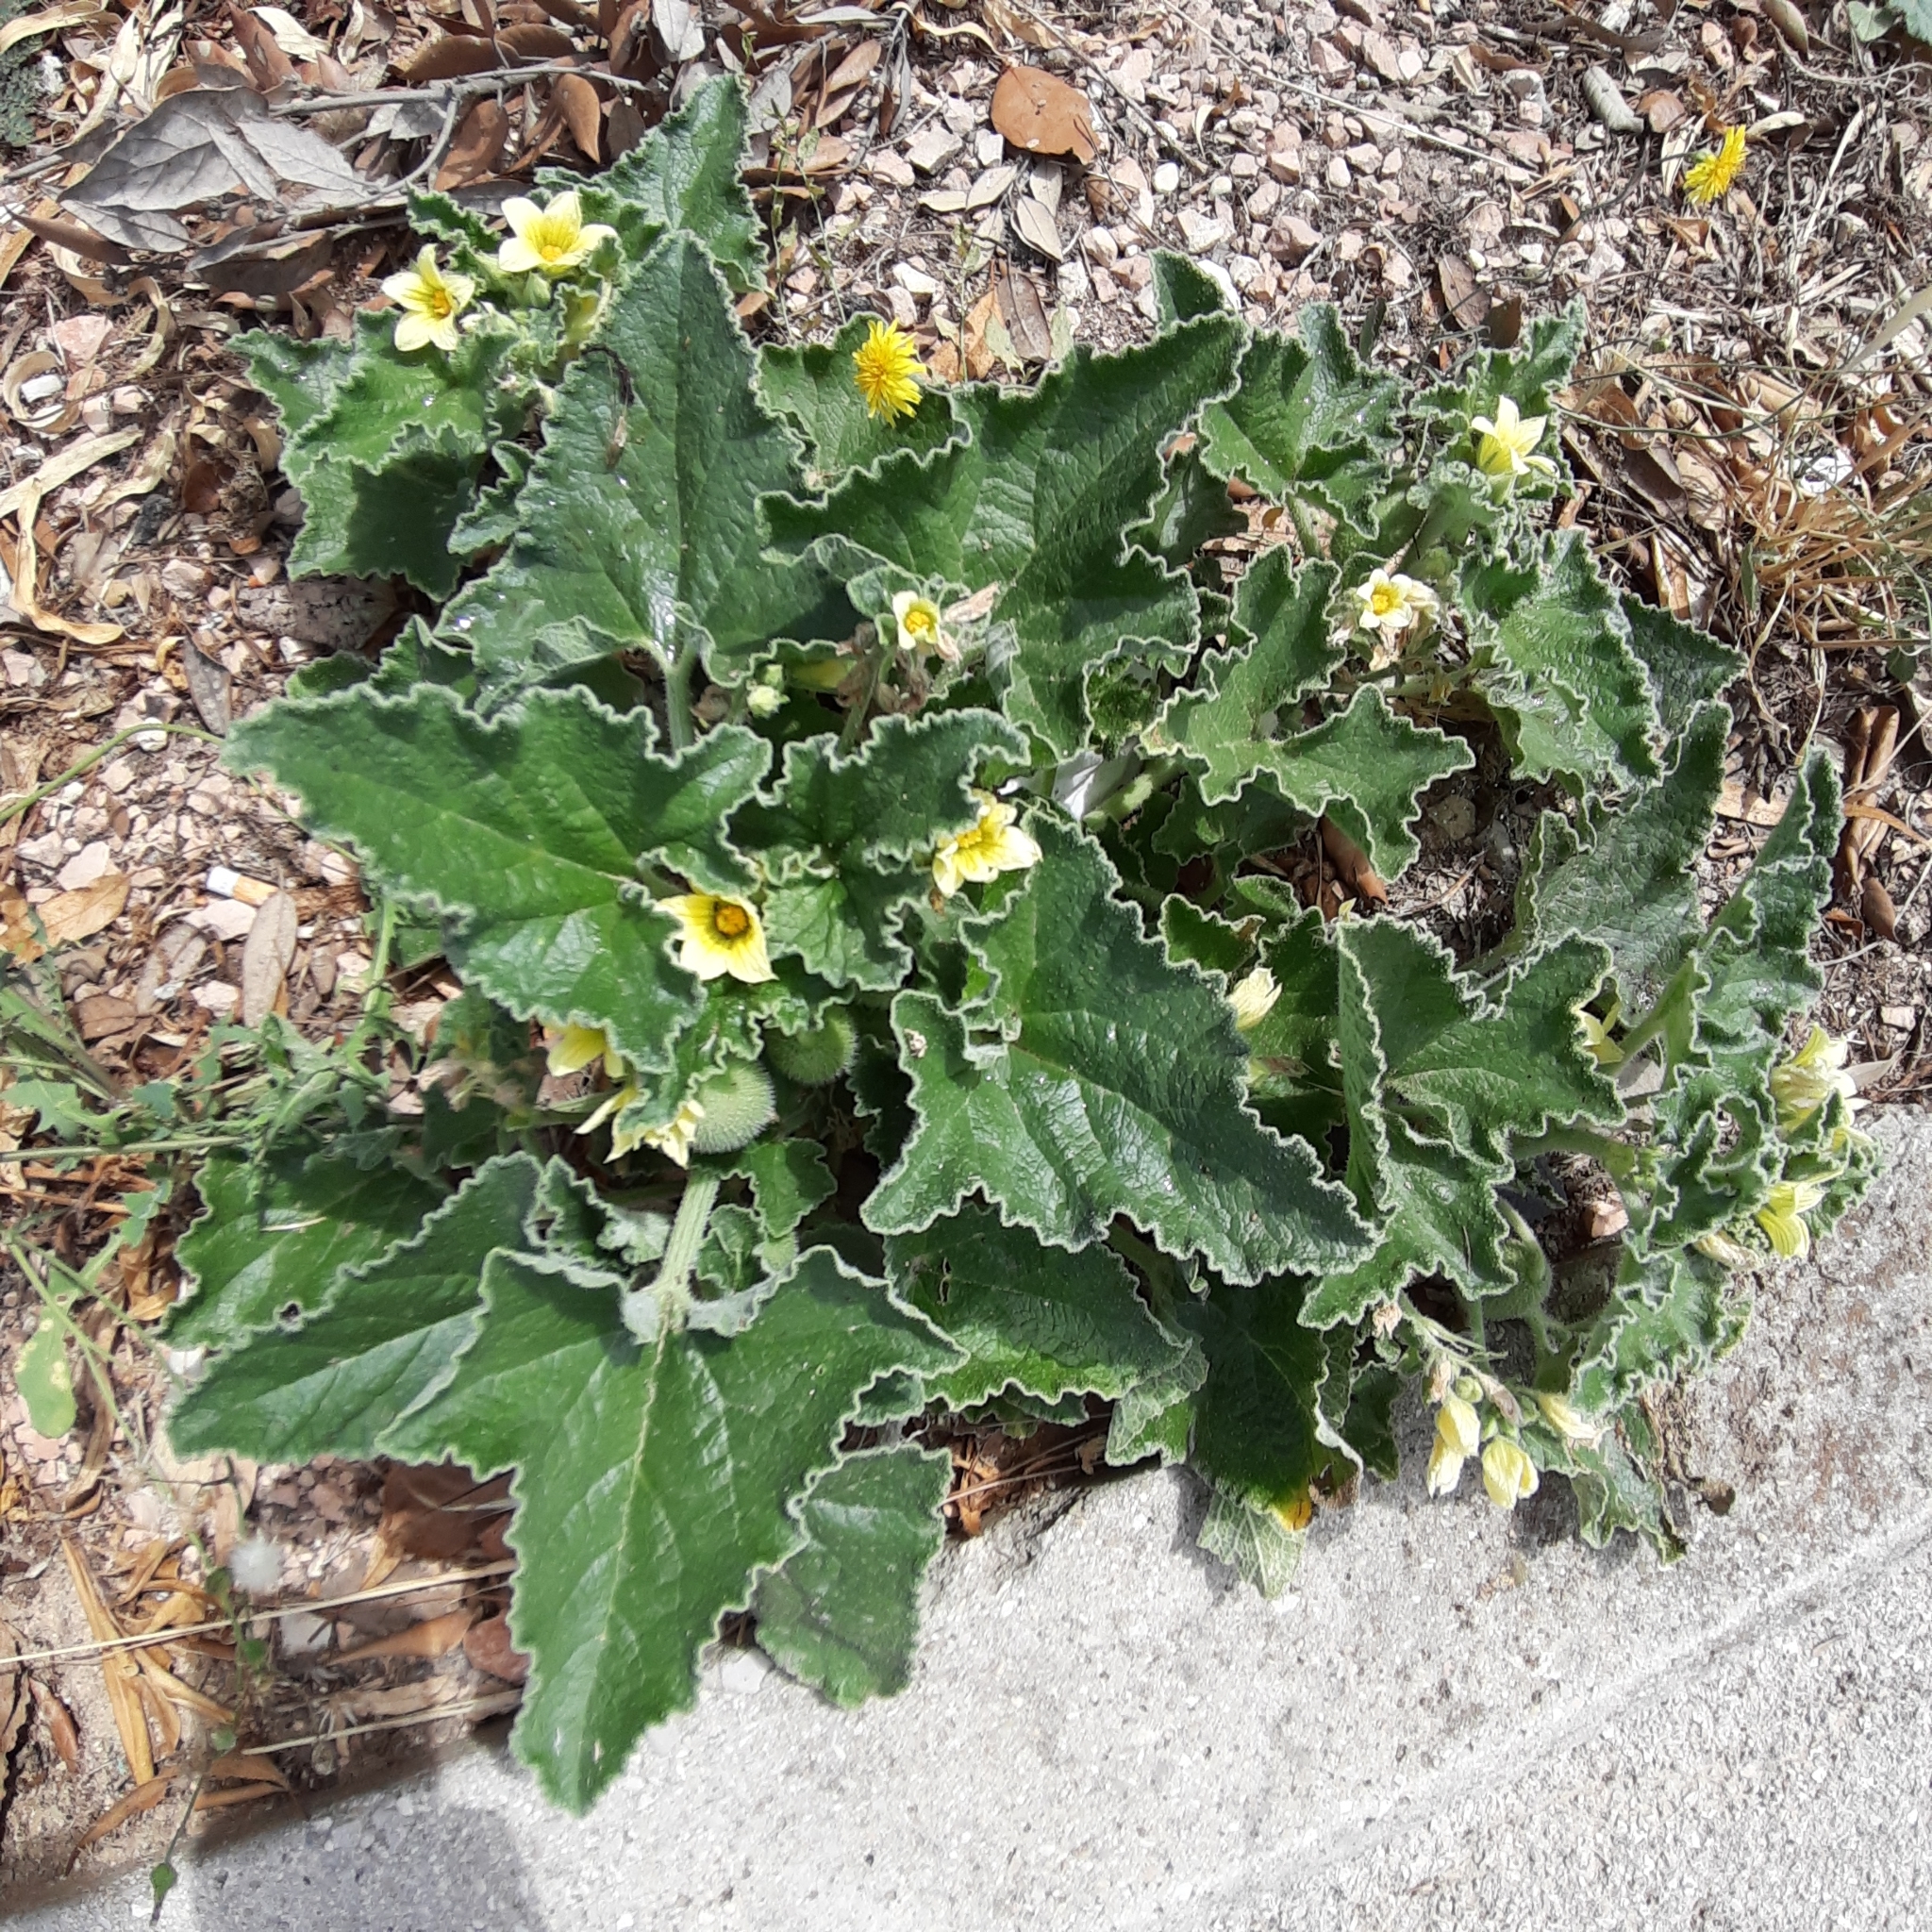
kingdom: Plantae
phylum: Tracheophyta
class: Magnoliopsida
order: Cucurbitales
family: Cucurbitaceae
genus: Ecballium
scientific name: Ecballium elaterium
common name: Squirting cucumber
